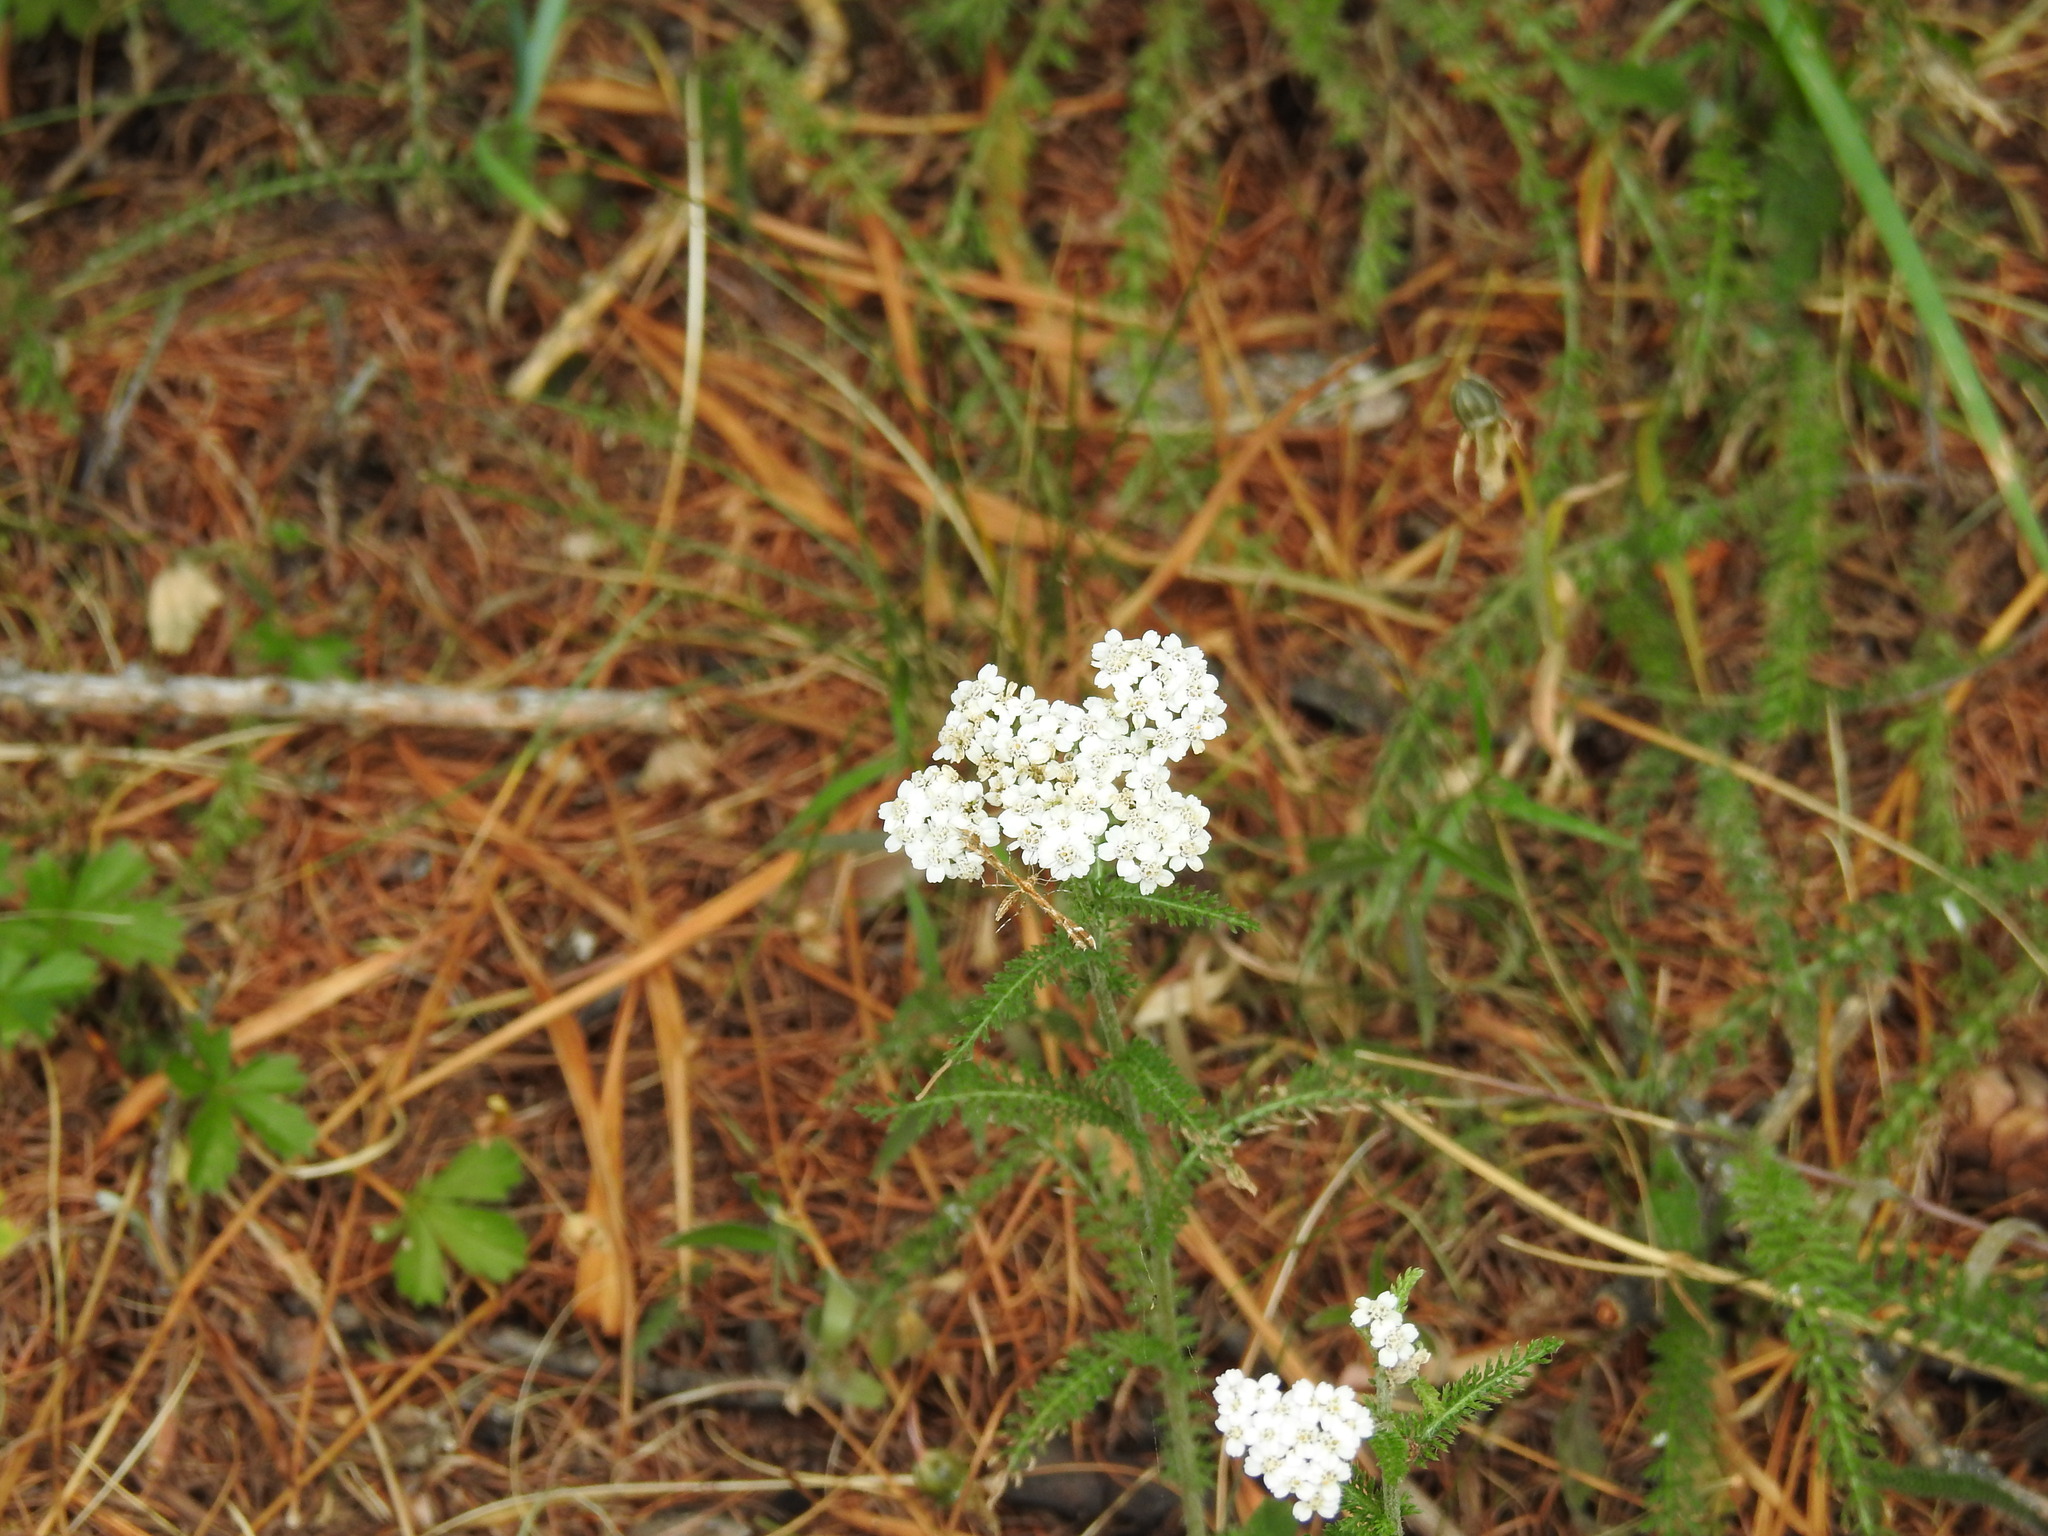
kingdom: Plantae
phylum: Tracheophyta
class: Magnoliopsida
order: Asterales
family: Asteraceae
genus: Achillea
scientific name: Achillea millefolium
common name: Yarrow
